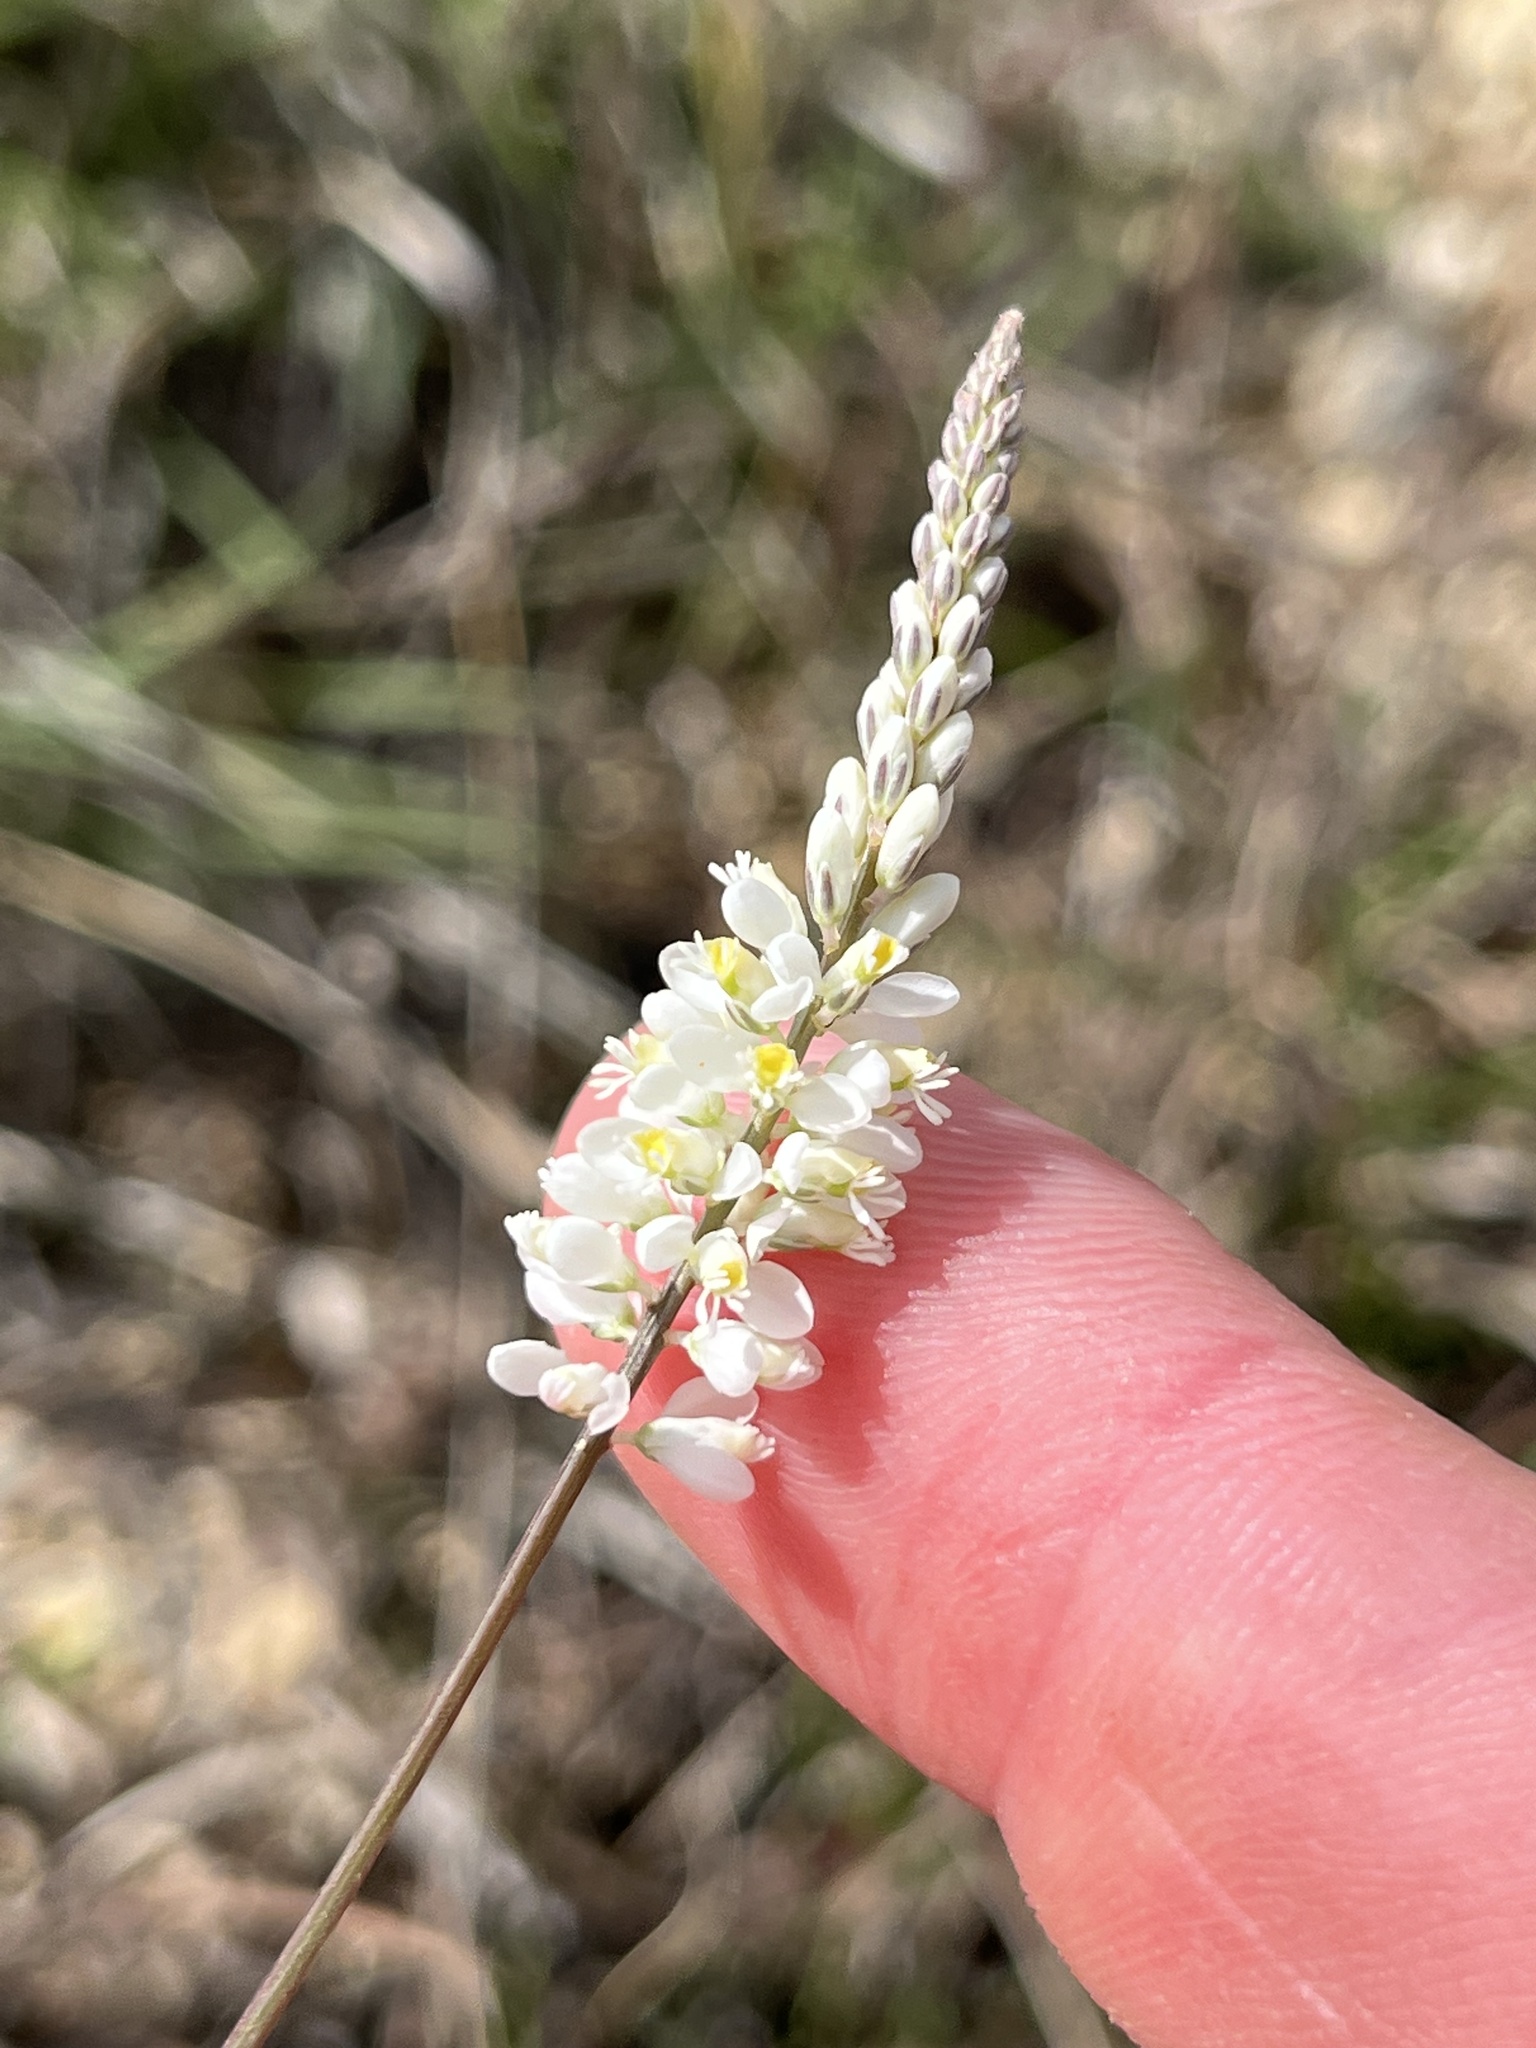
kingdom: Plantae
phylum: Tracheophyta
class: Magnoliopsida
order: Fabales
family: Polygalaceae
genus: Polygala
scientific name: Polygala alba
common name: White milkwort
